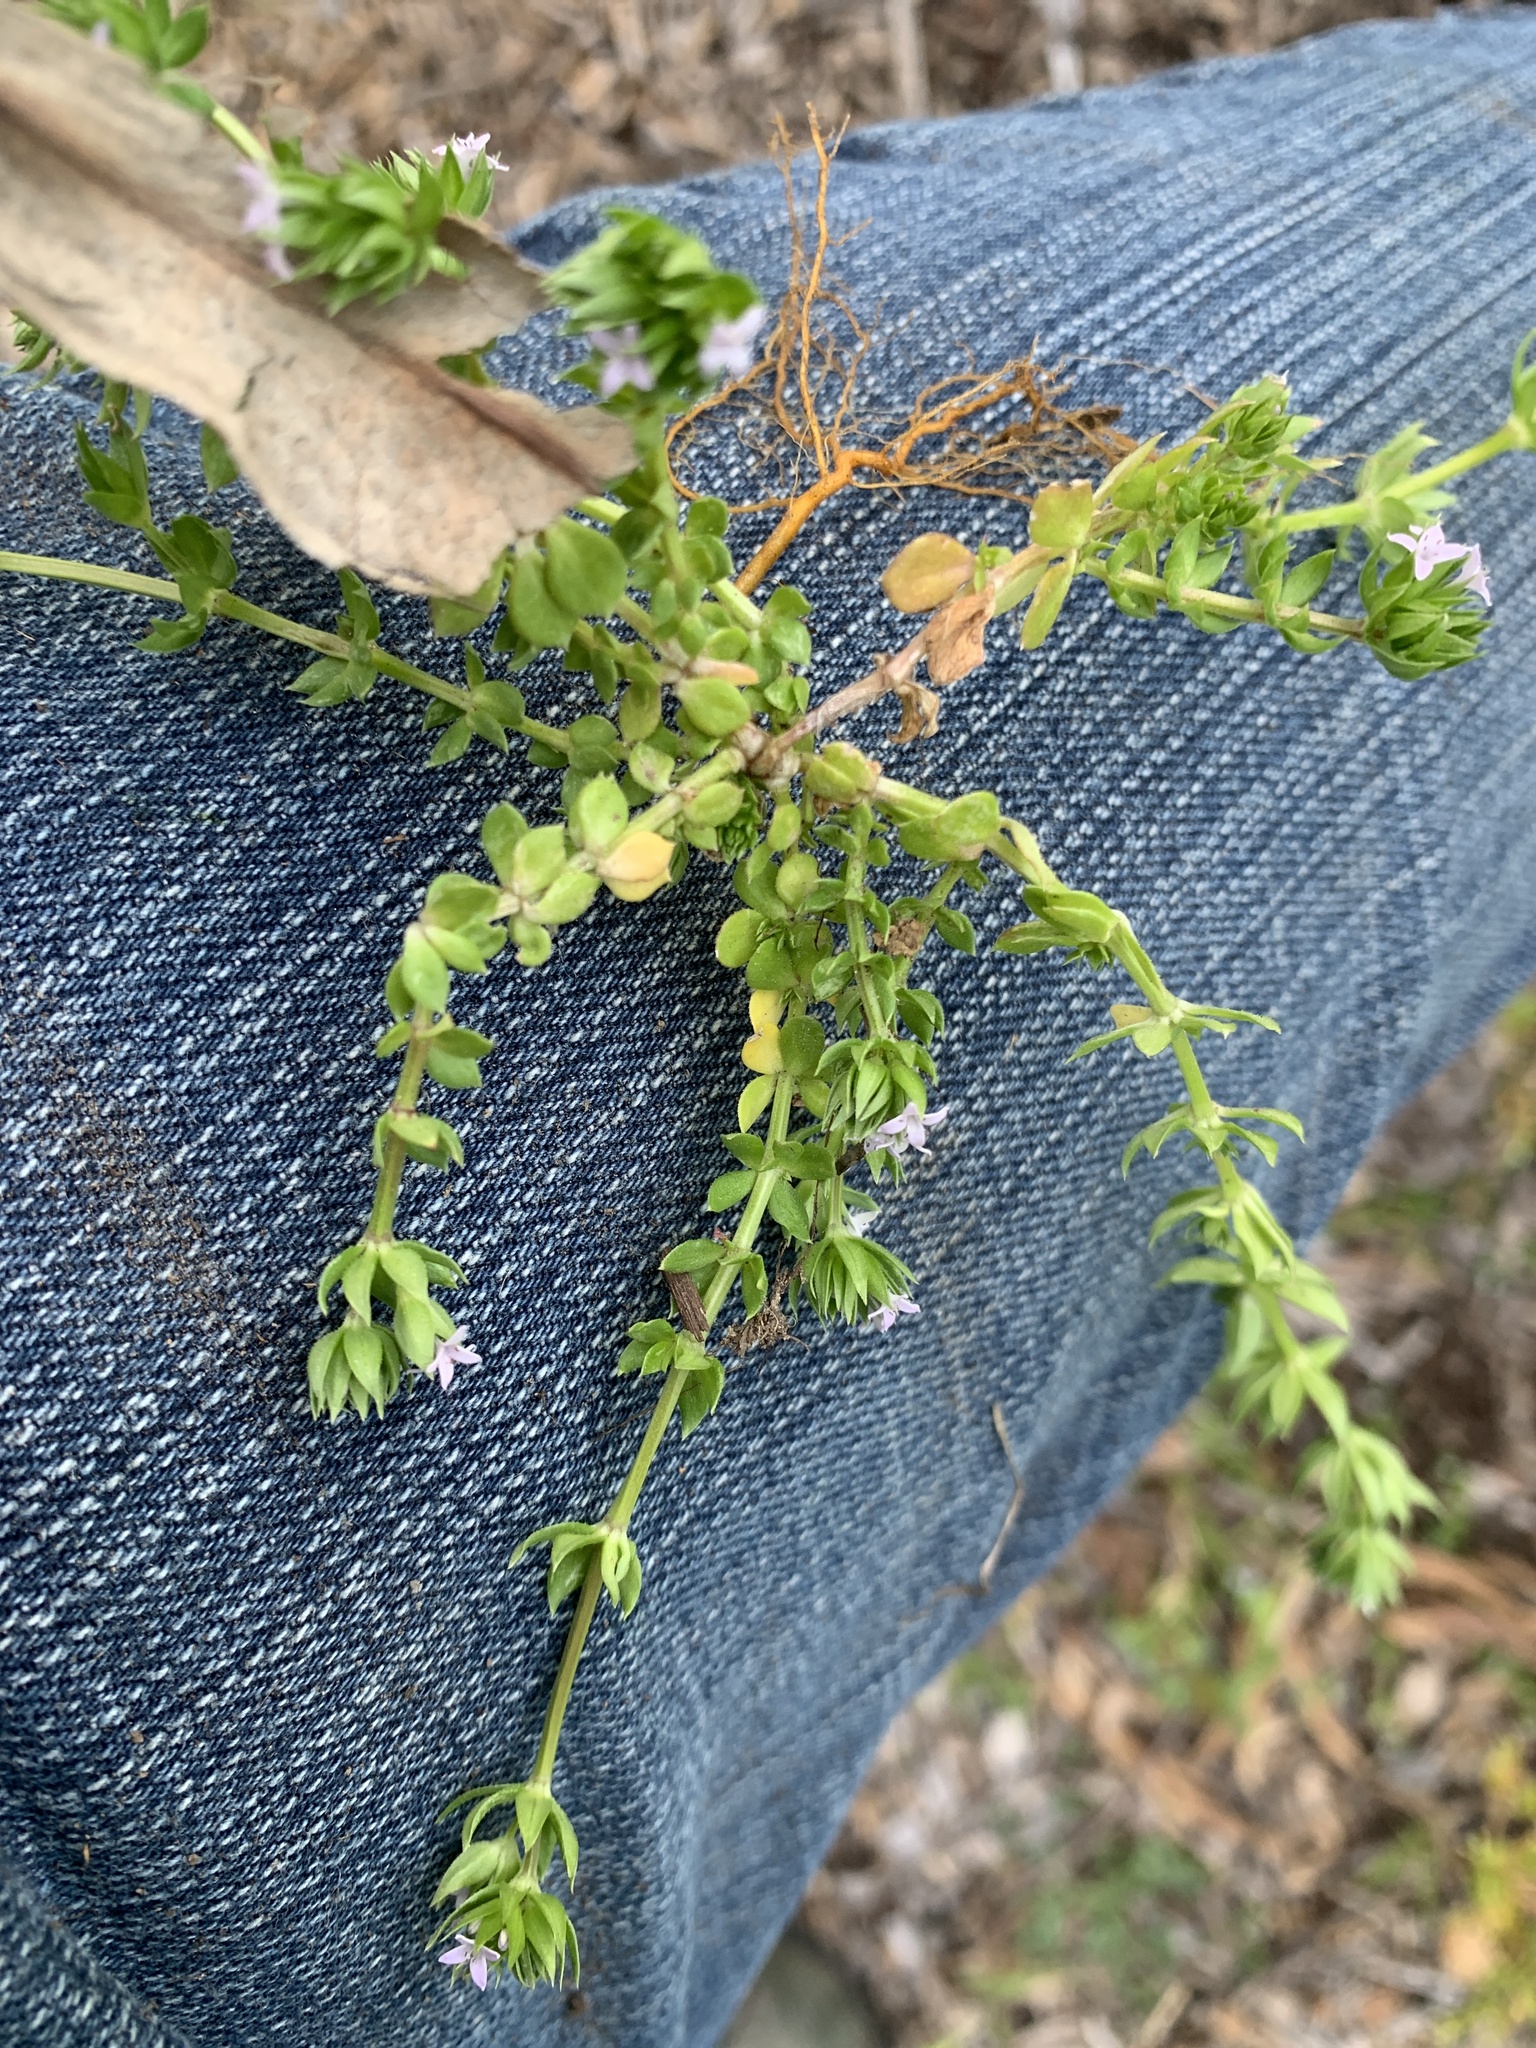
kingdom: Plantae
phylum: Tracheophyta
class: Magnoliopsida
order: Gentianales
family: Rubiaceae
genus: Sherardia
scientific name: Sherardia arvensis
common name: Field madder
